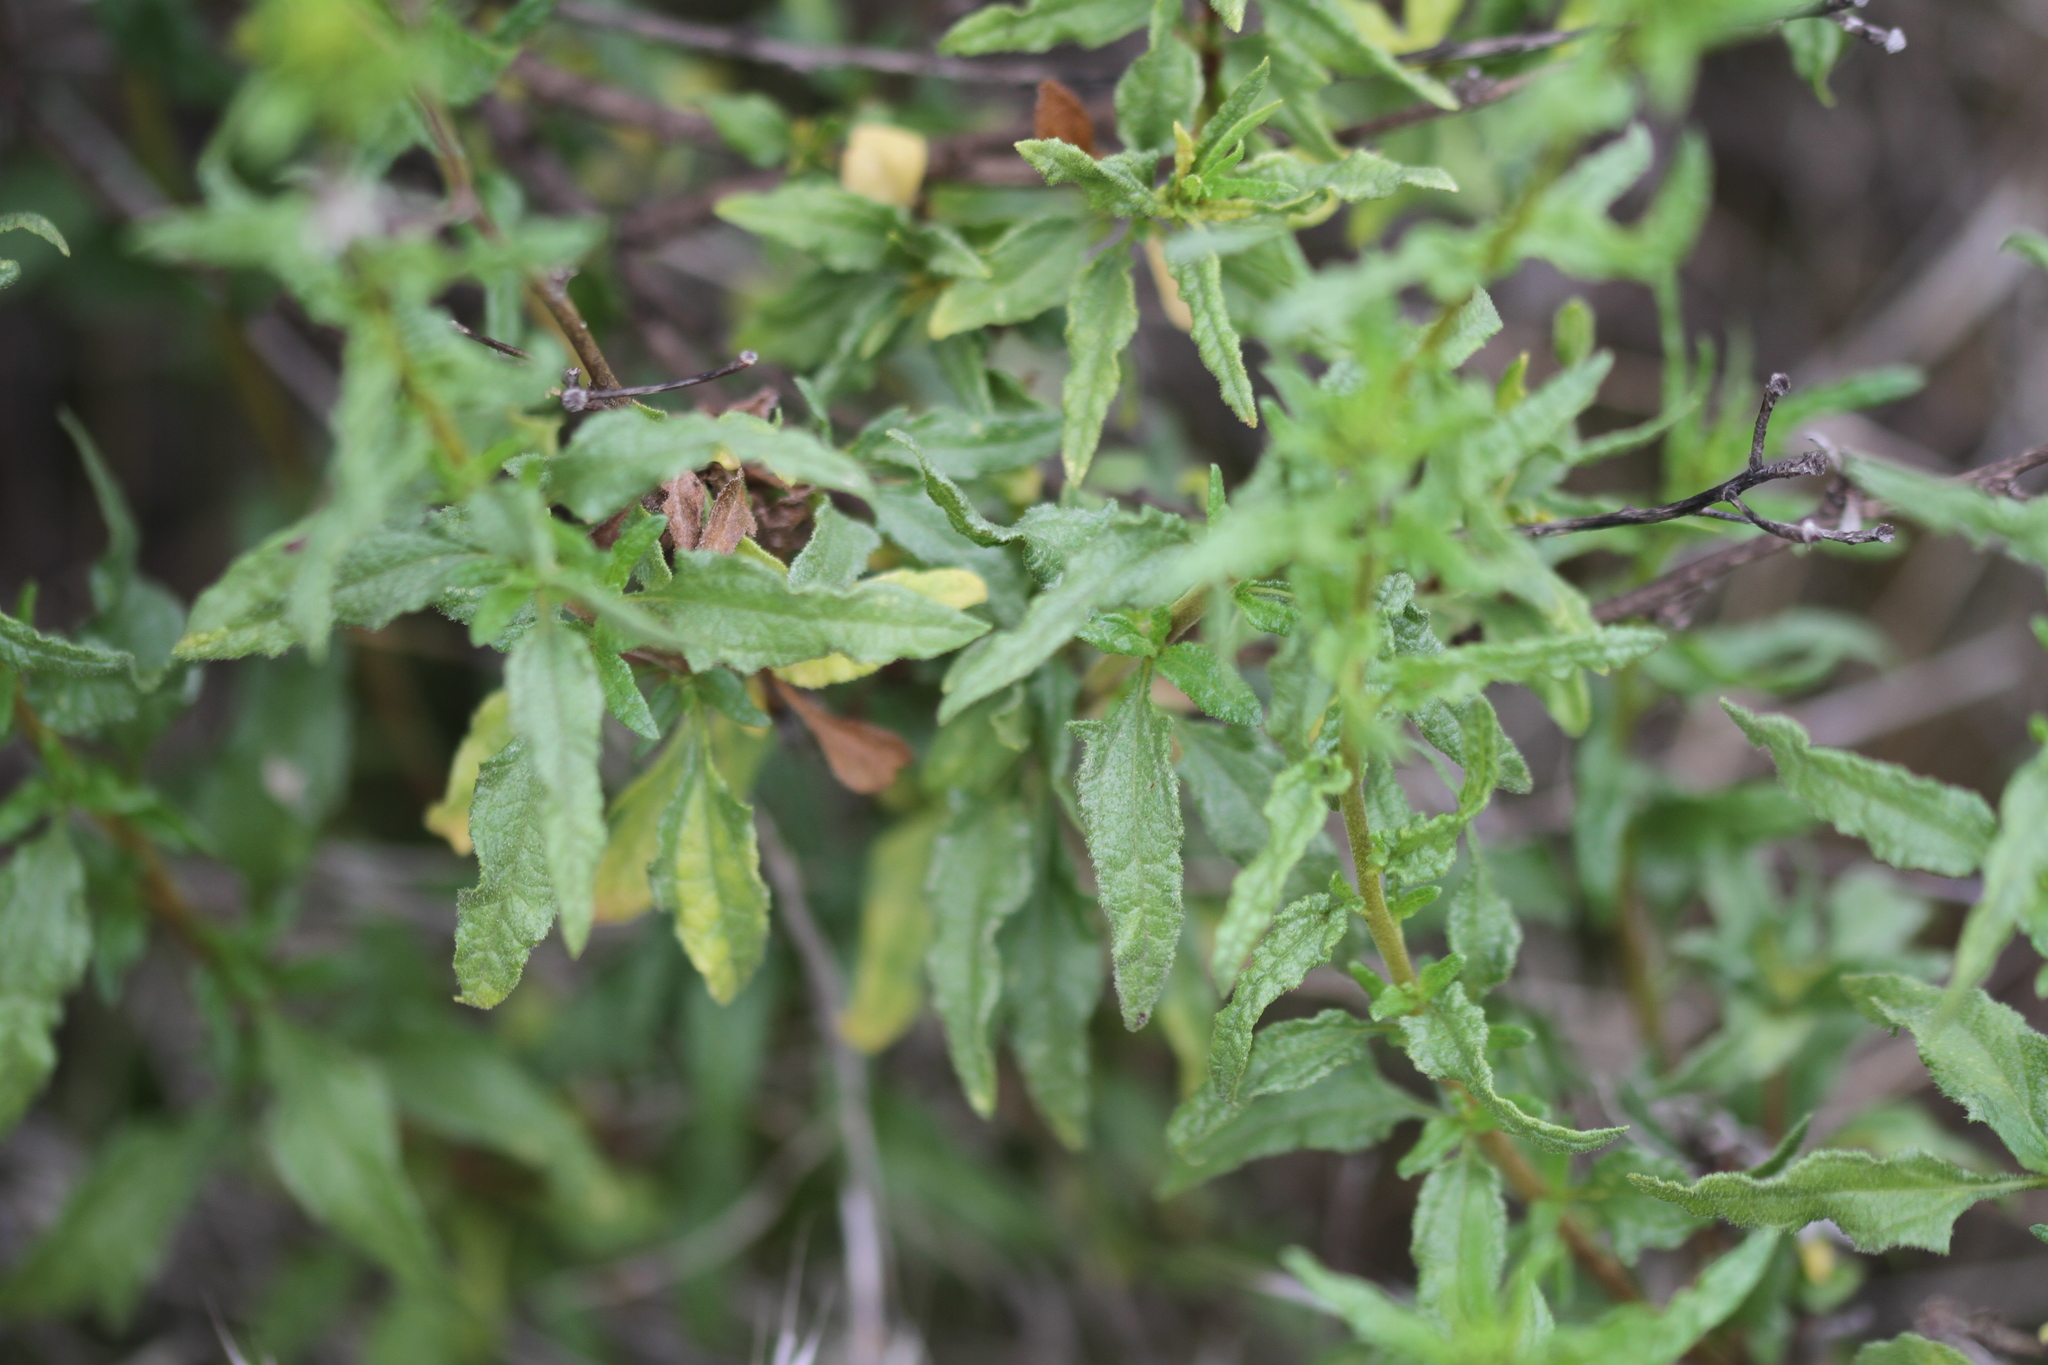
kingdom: Plantae
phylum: Tracheophyta
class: Magnoliopsida
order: Asterales
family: Asteraceae
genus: Bahiopsis
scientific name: Bahiopsis laciniata
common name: San diego county viguiera
